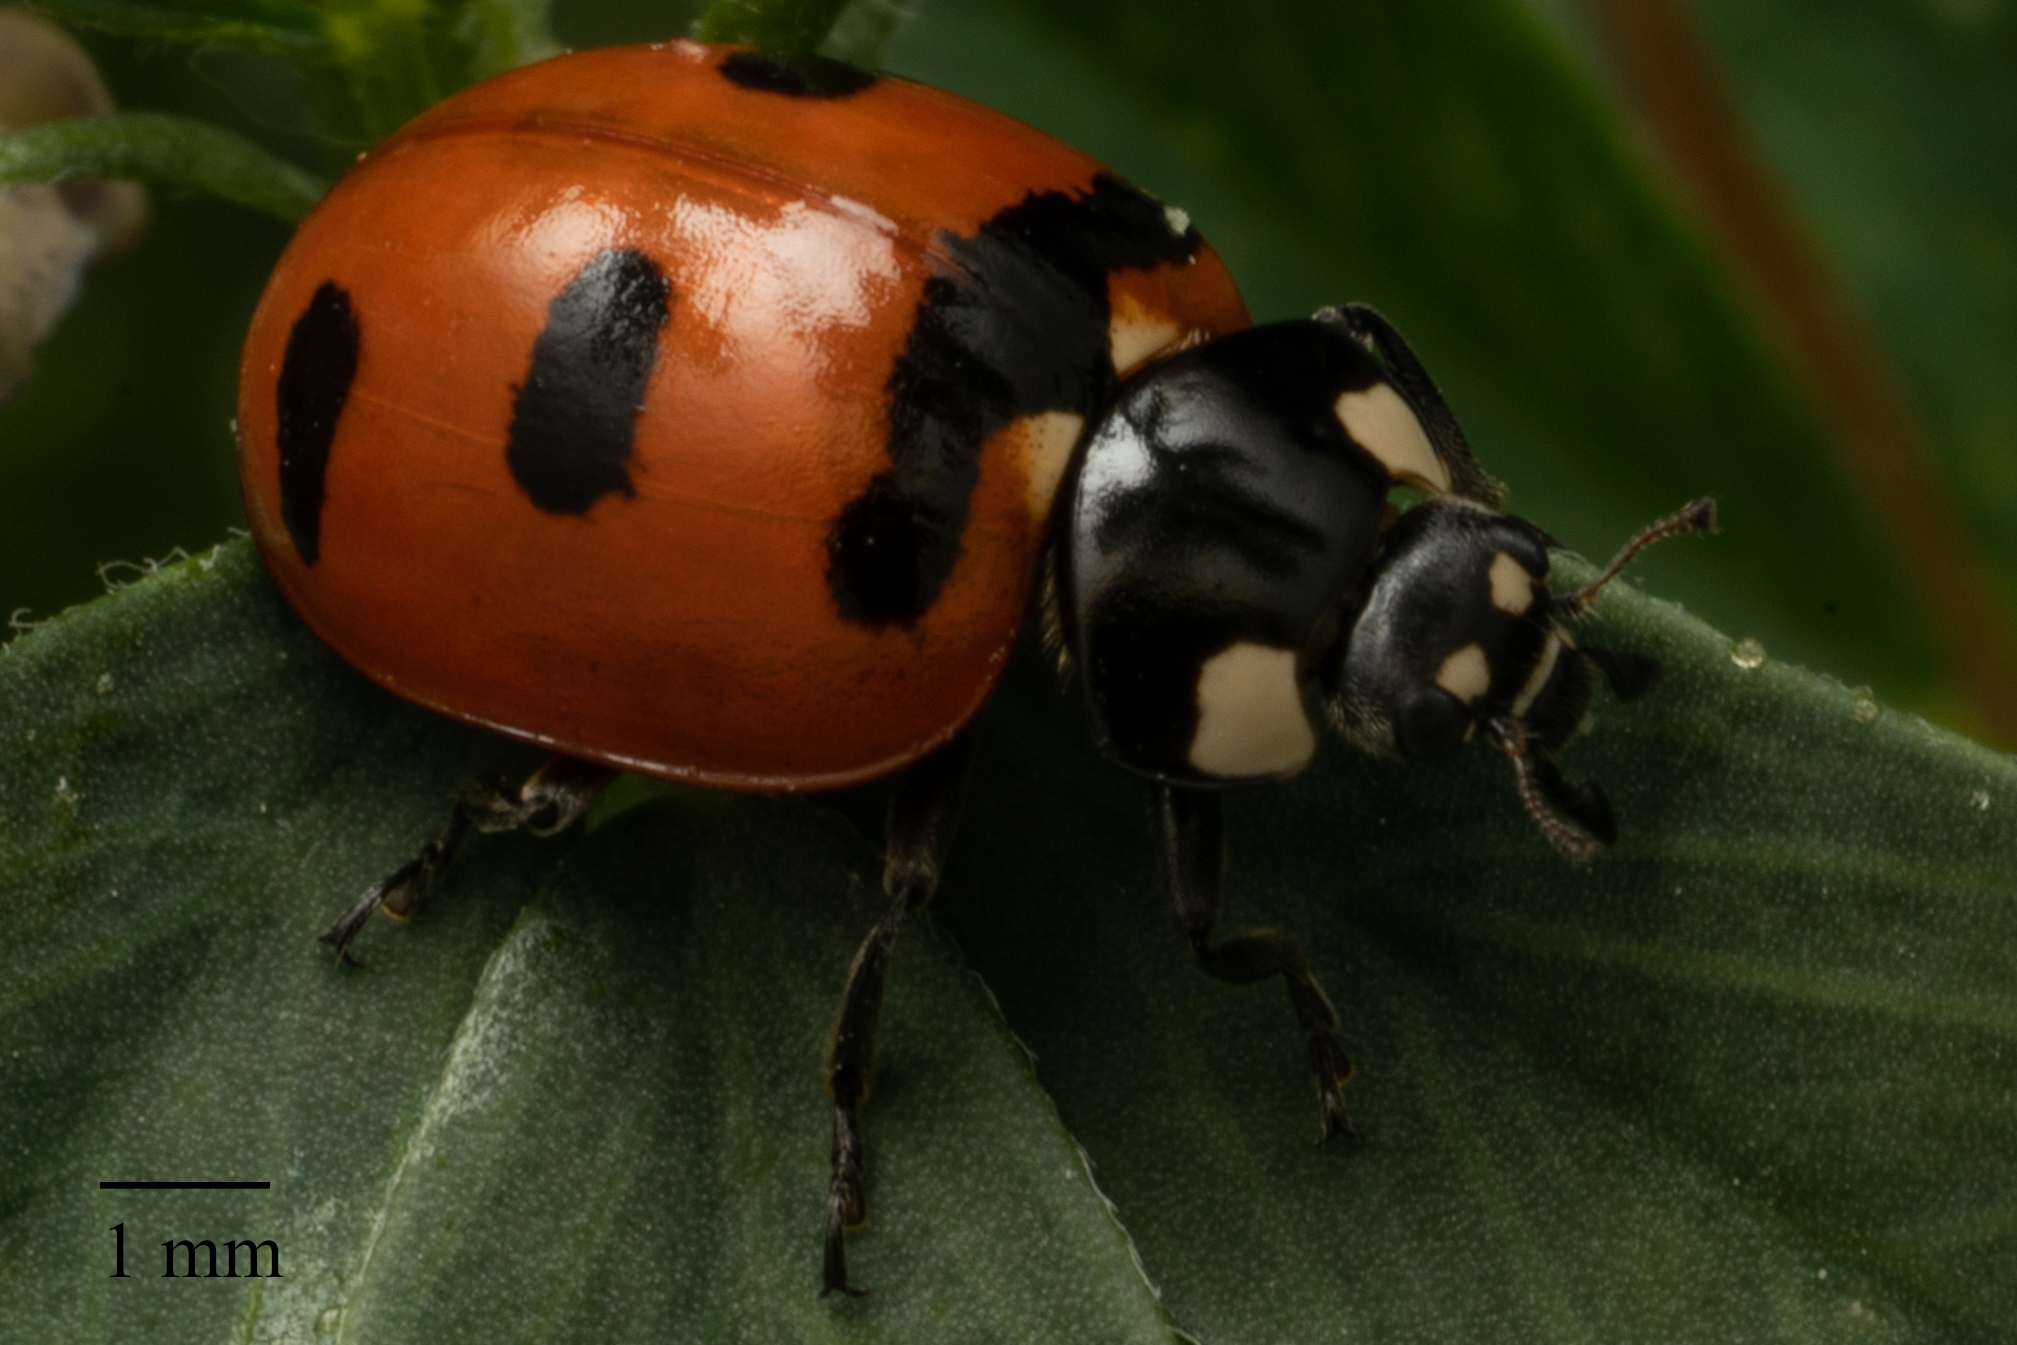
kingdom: Animalia
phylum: Arthropoda
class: Insecta
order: Coleoptera
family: Coccinellidae
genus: Coccinella
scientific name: Coccinella transversoguttata
